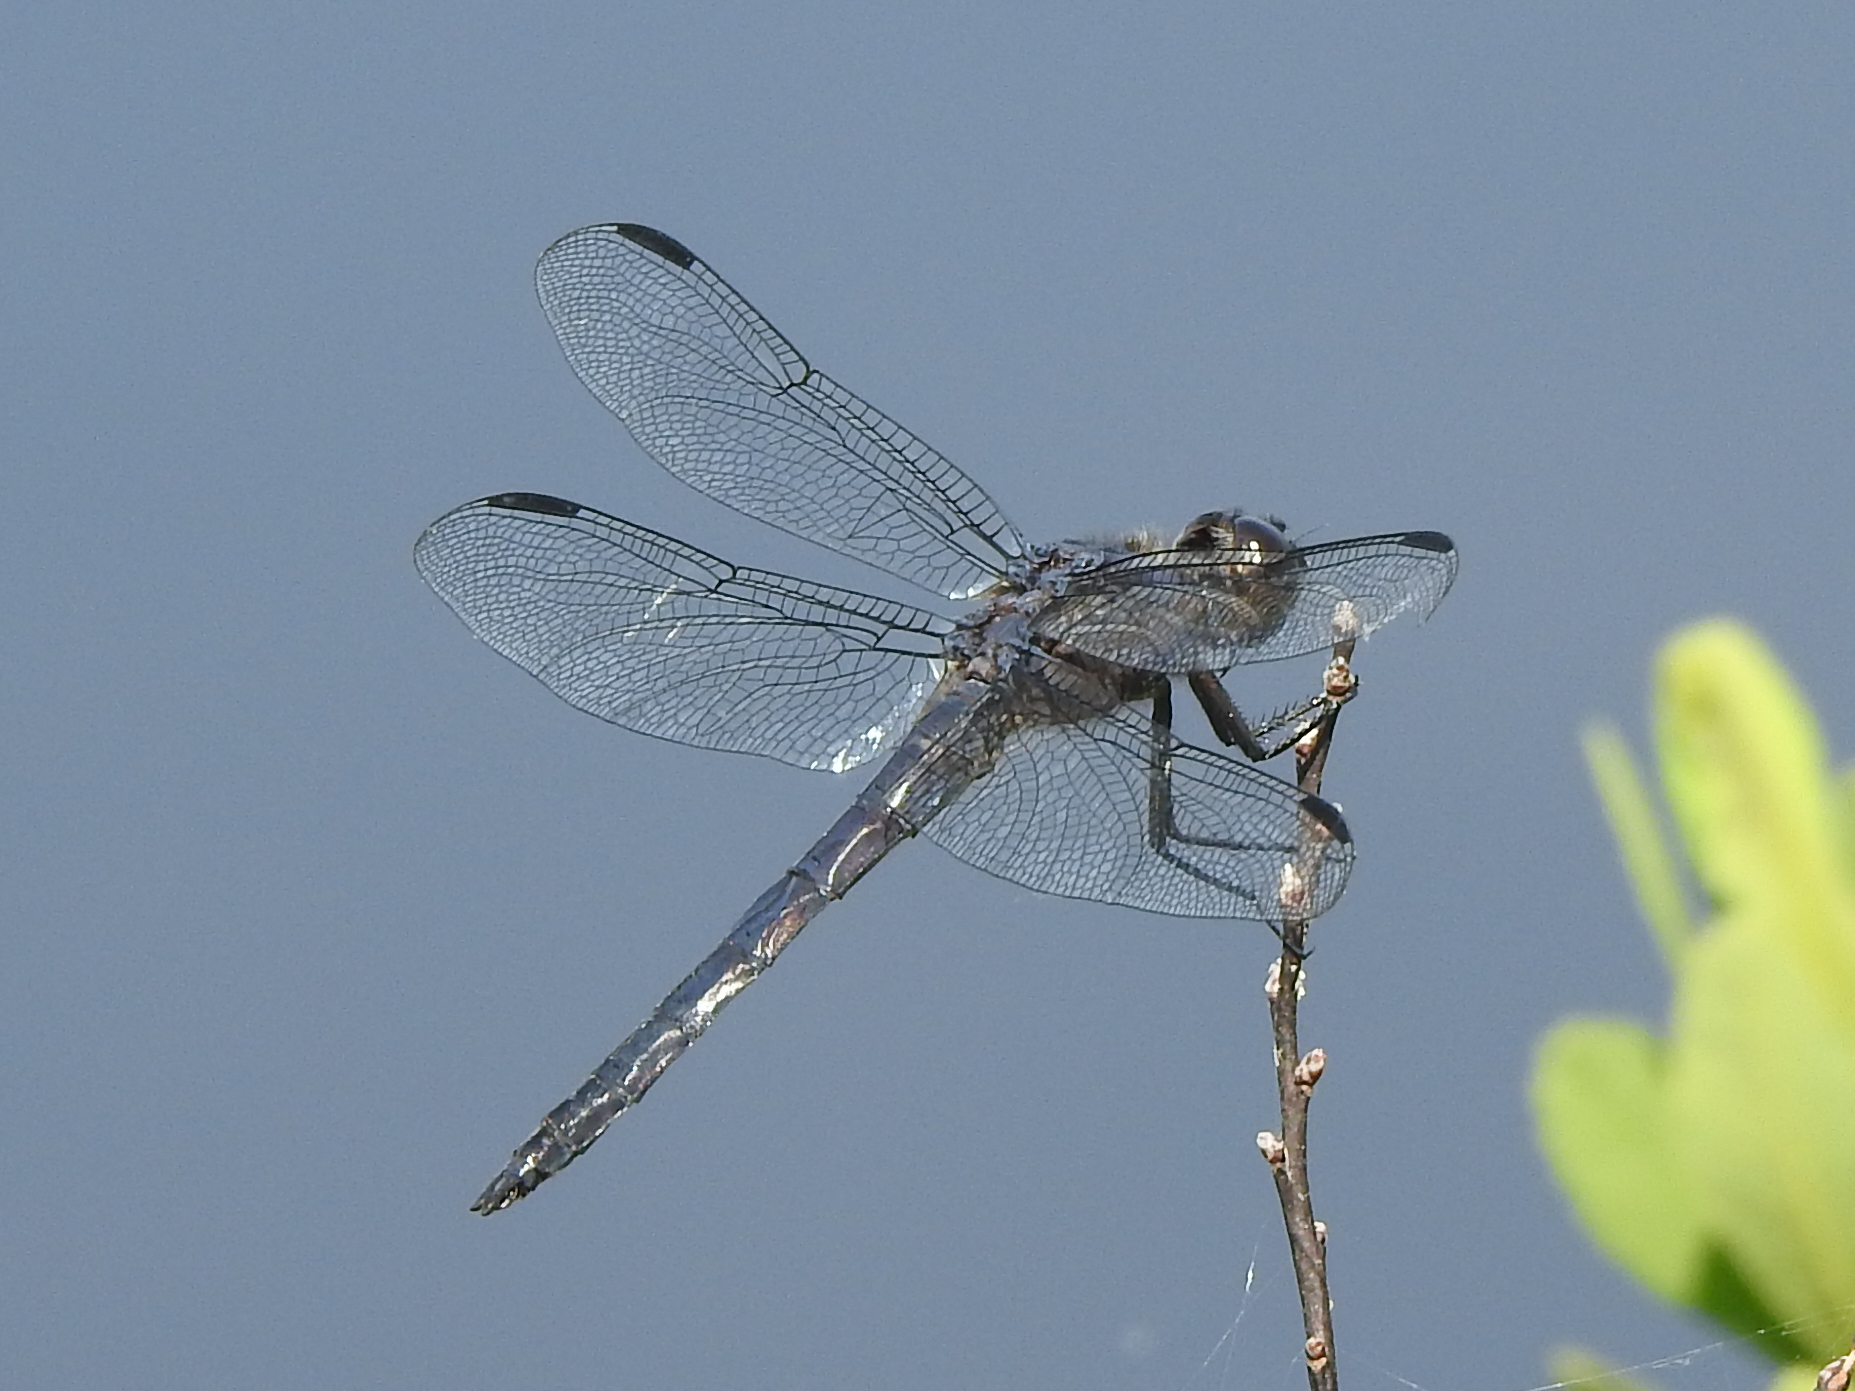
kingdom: Animalia
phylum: Arthropoda
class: Insecta
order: Odonata
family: Libellulidae
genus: Libellula
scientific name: Libellula incesta
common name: Slaty skimmer
